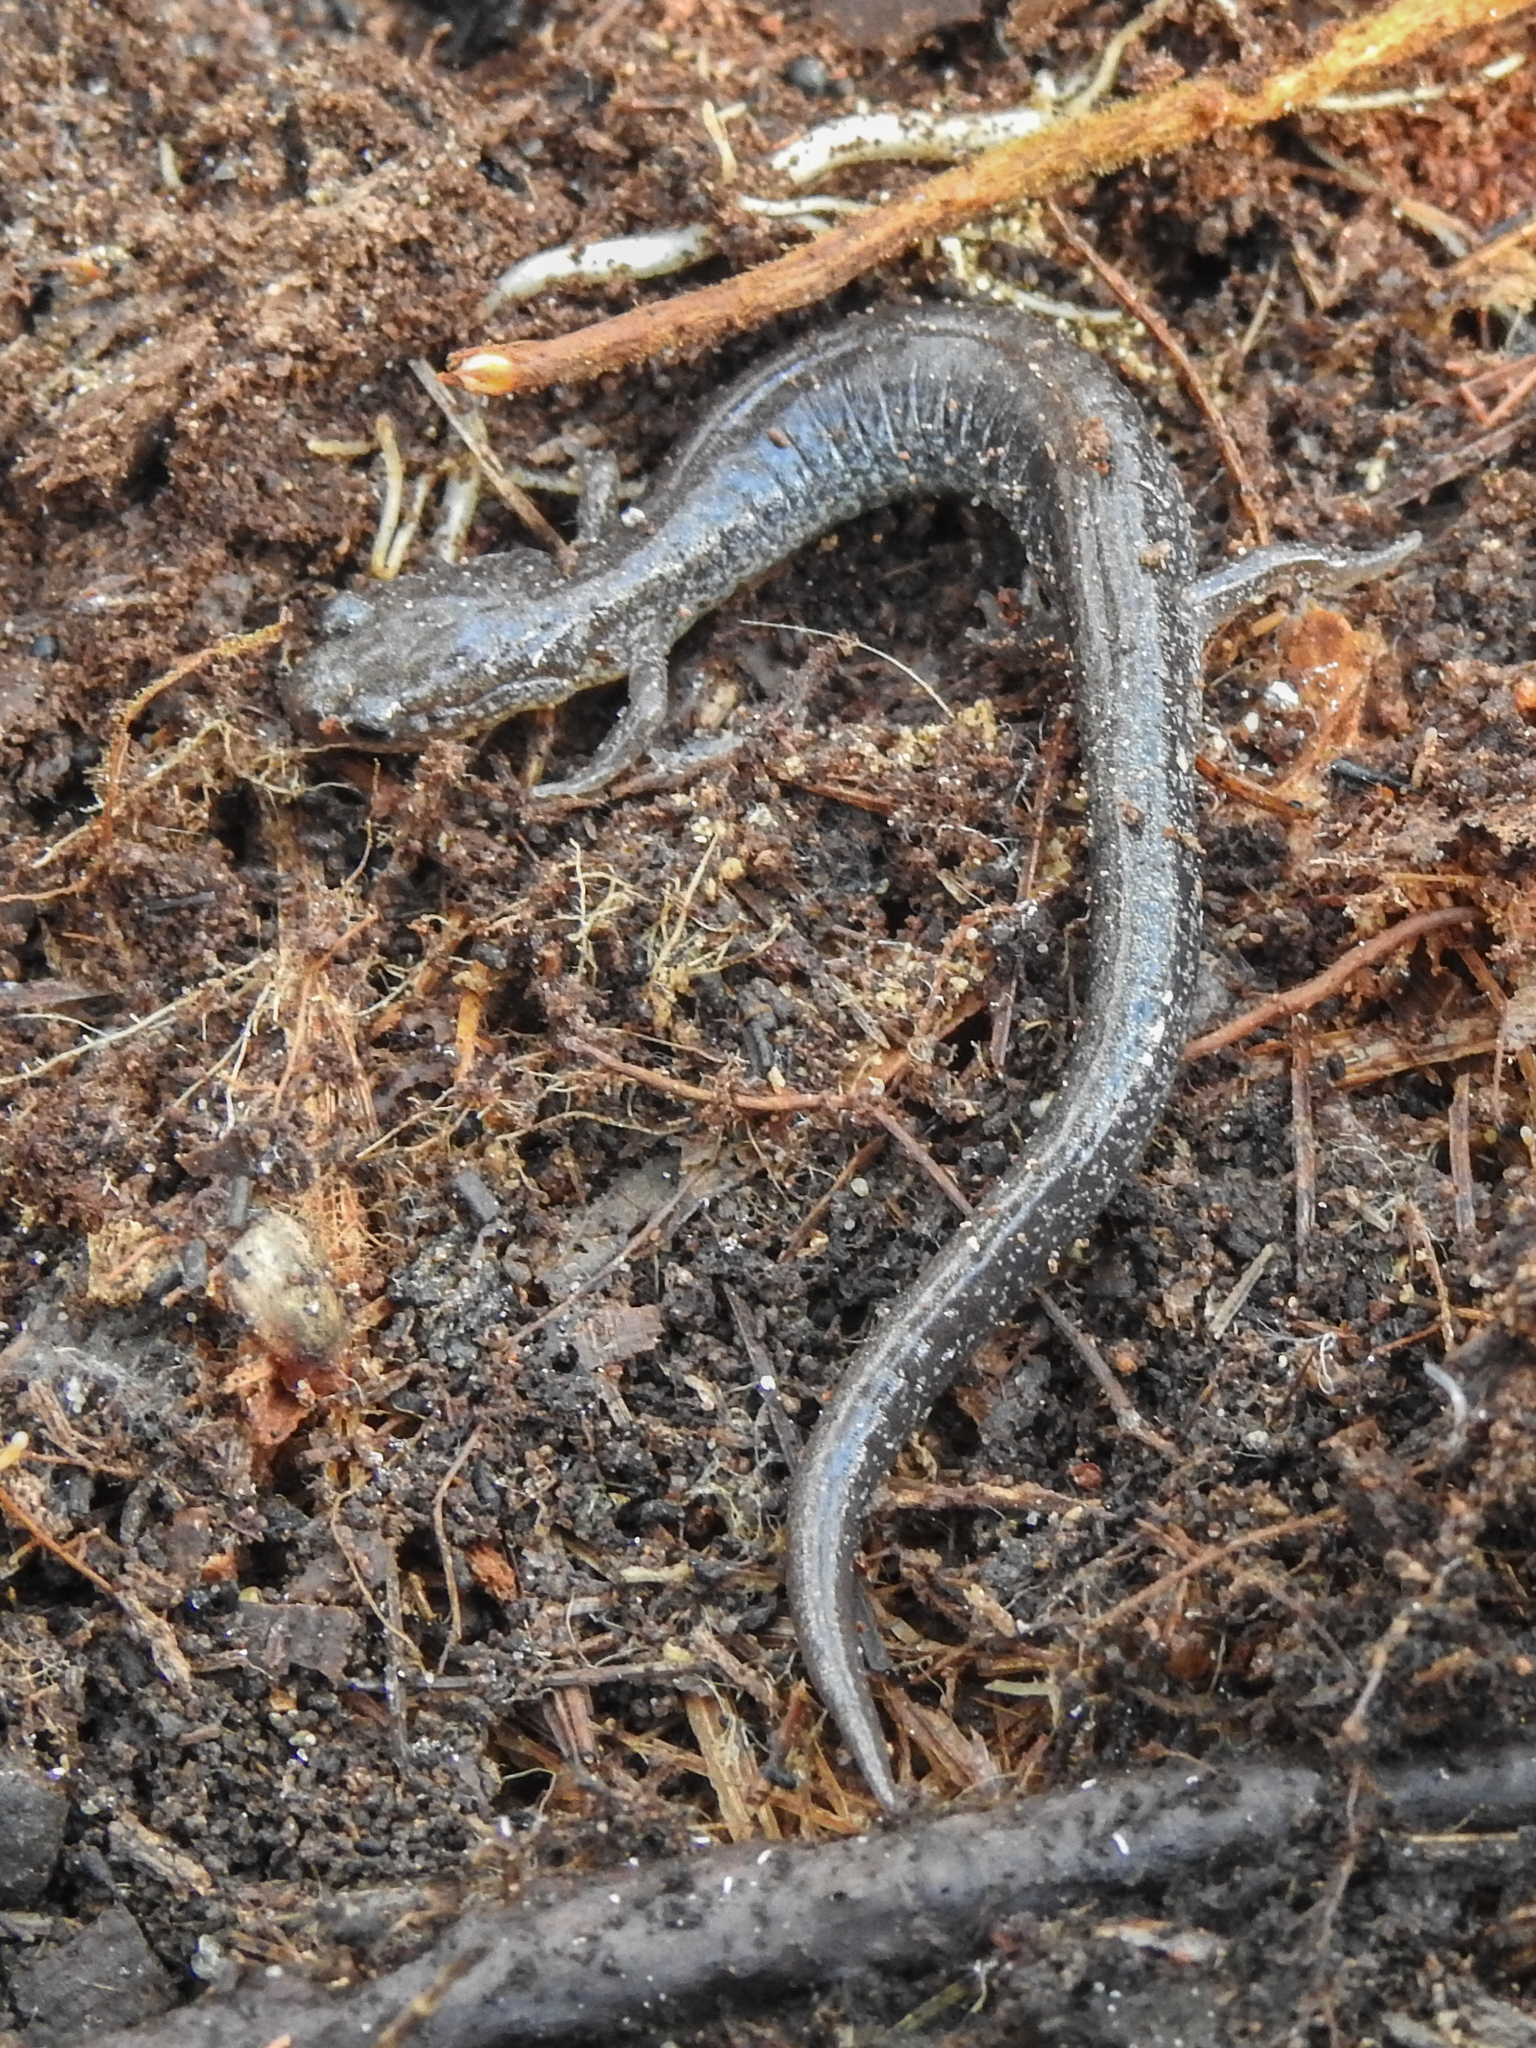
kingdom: Animalia
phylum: Chordata
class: Amphibia
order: Caudata
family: Plethodontidae
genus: Plethodon
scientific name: Plethodon cinereus
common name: Redback salamander
